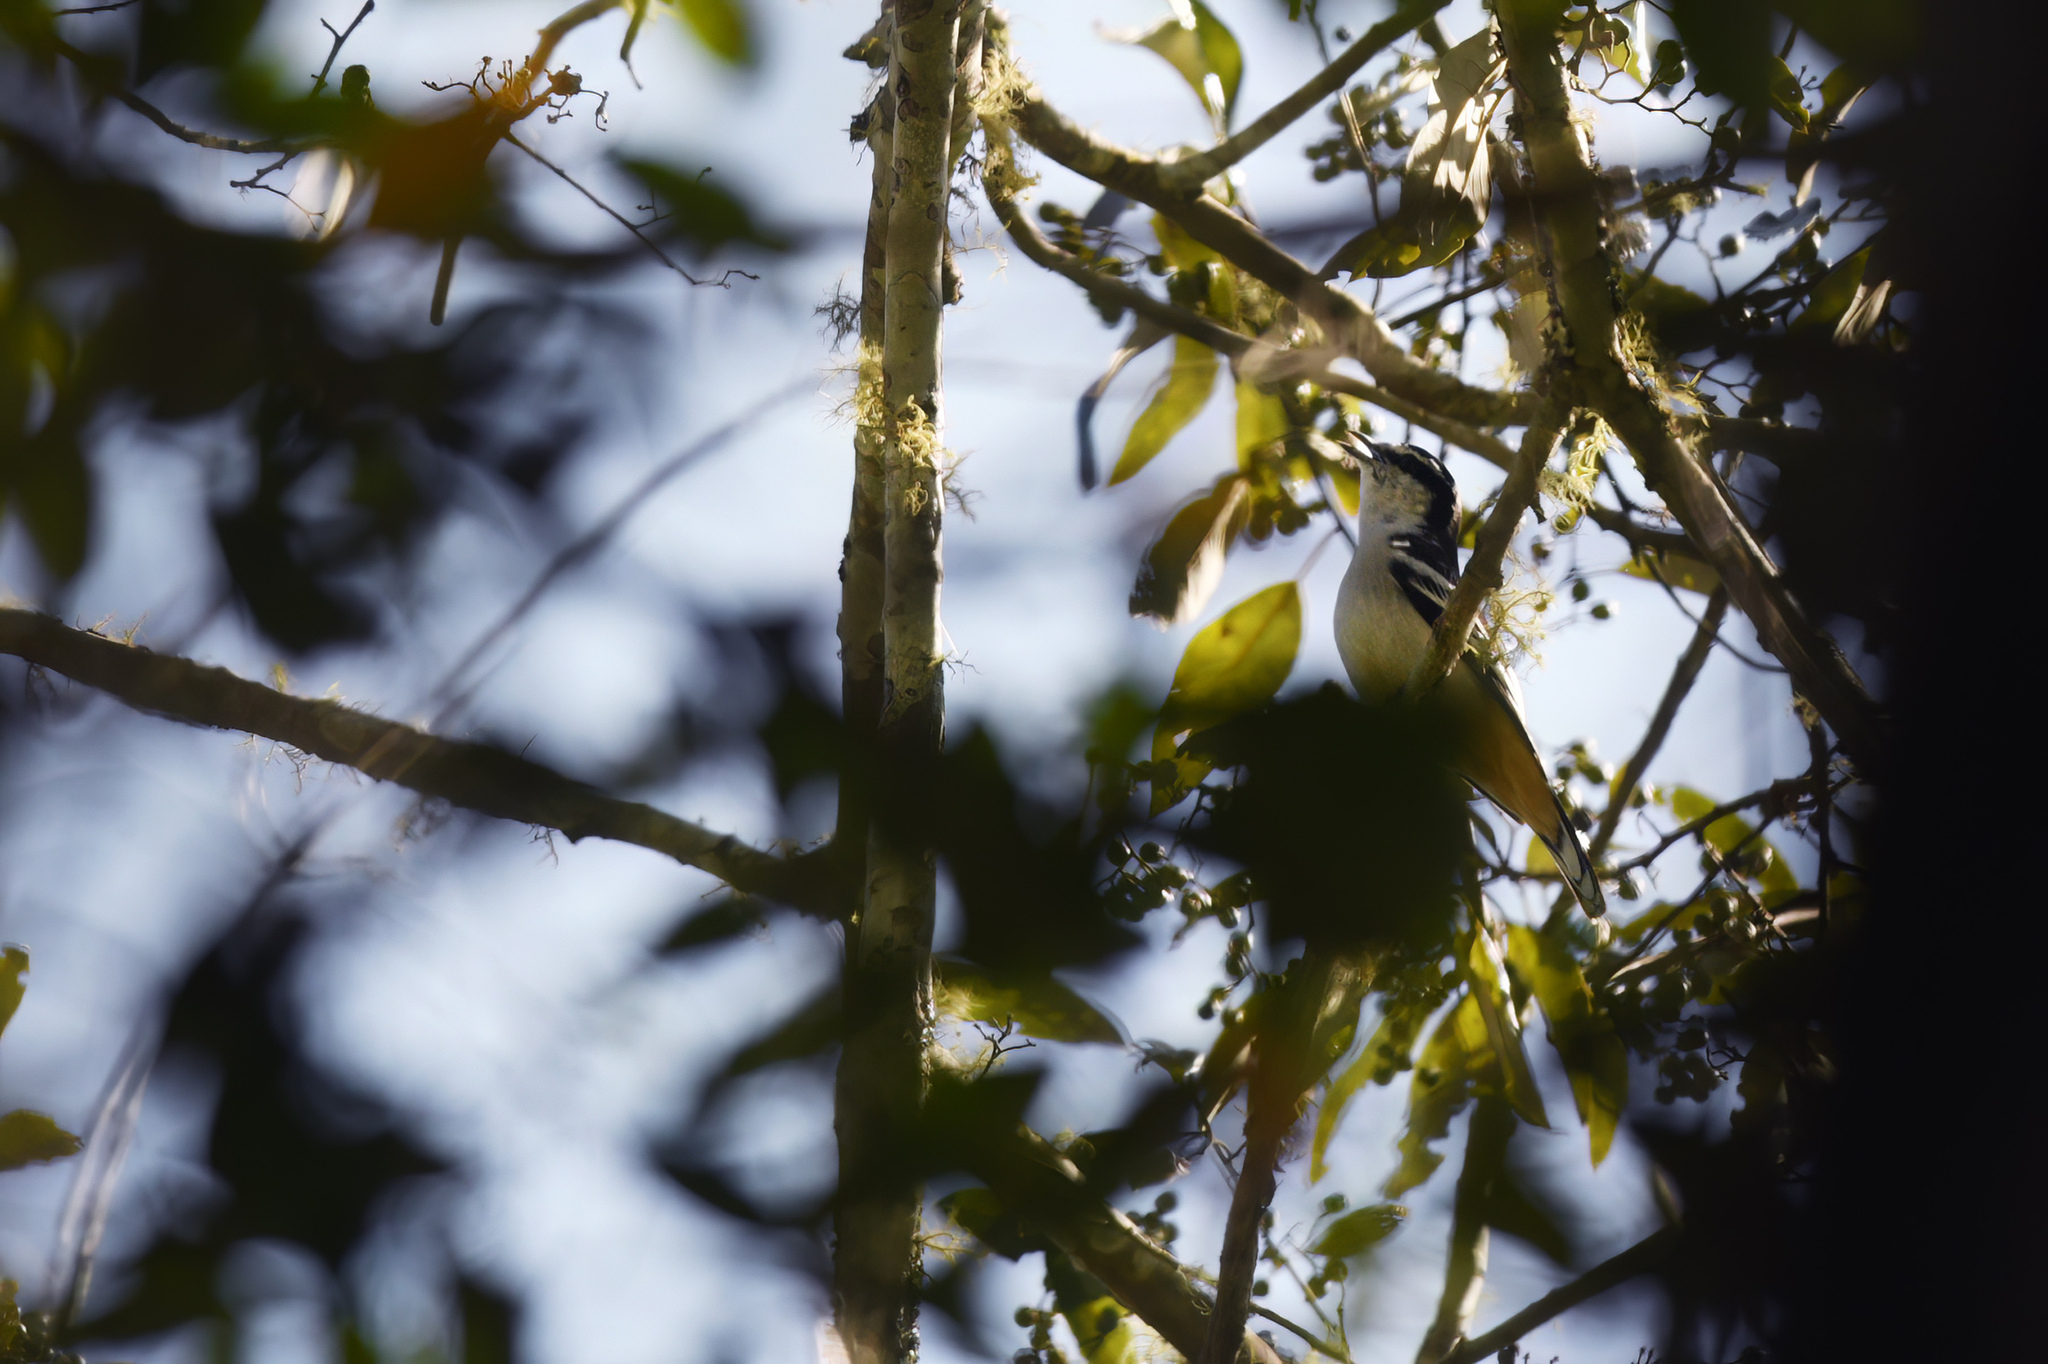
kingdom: Animalia
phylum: Chordata
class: Aves
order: Passeriformes
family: Campephagidae
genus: Lalage
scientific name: Lalage leucomela
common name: Varied triller
